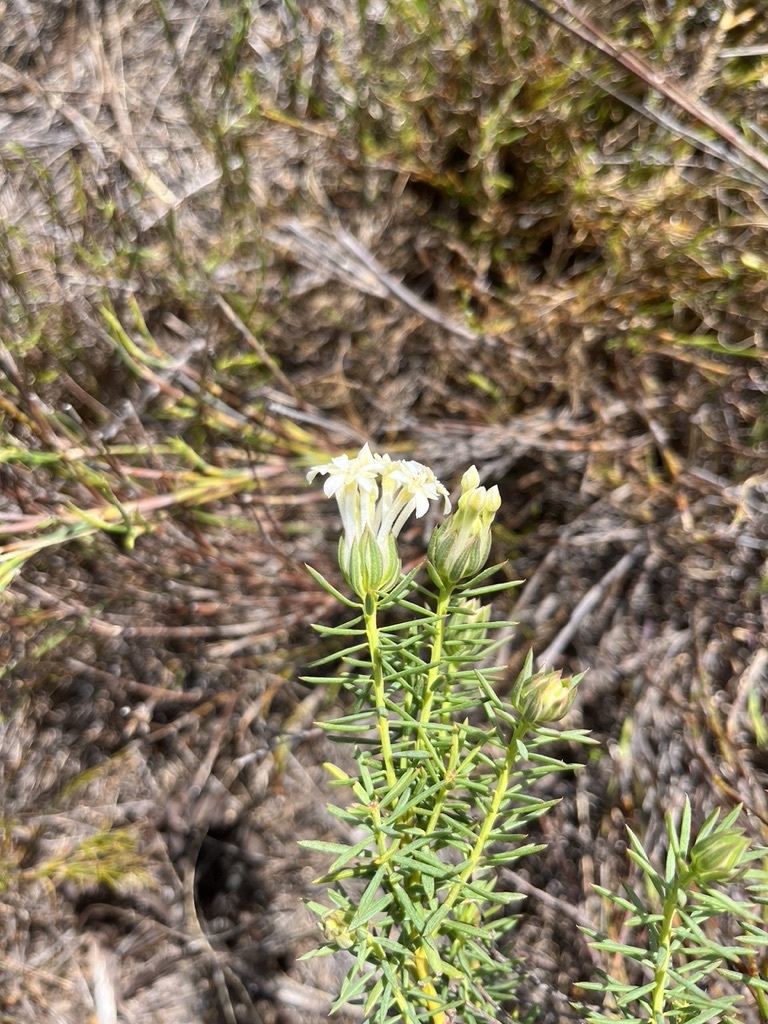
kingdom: Plantae
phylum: Tracheophyta
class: Magnoliopsida
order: Malvales
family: Thymelaeaceae
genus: Gnidia
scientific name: Gnidia pinifolia
